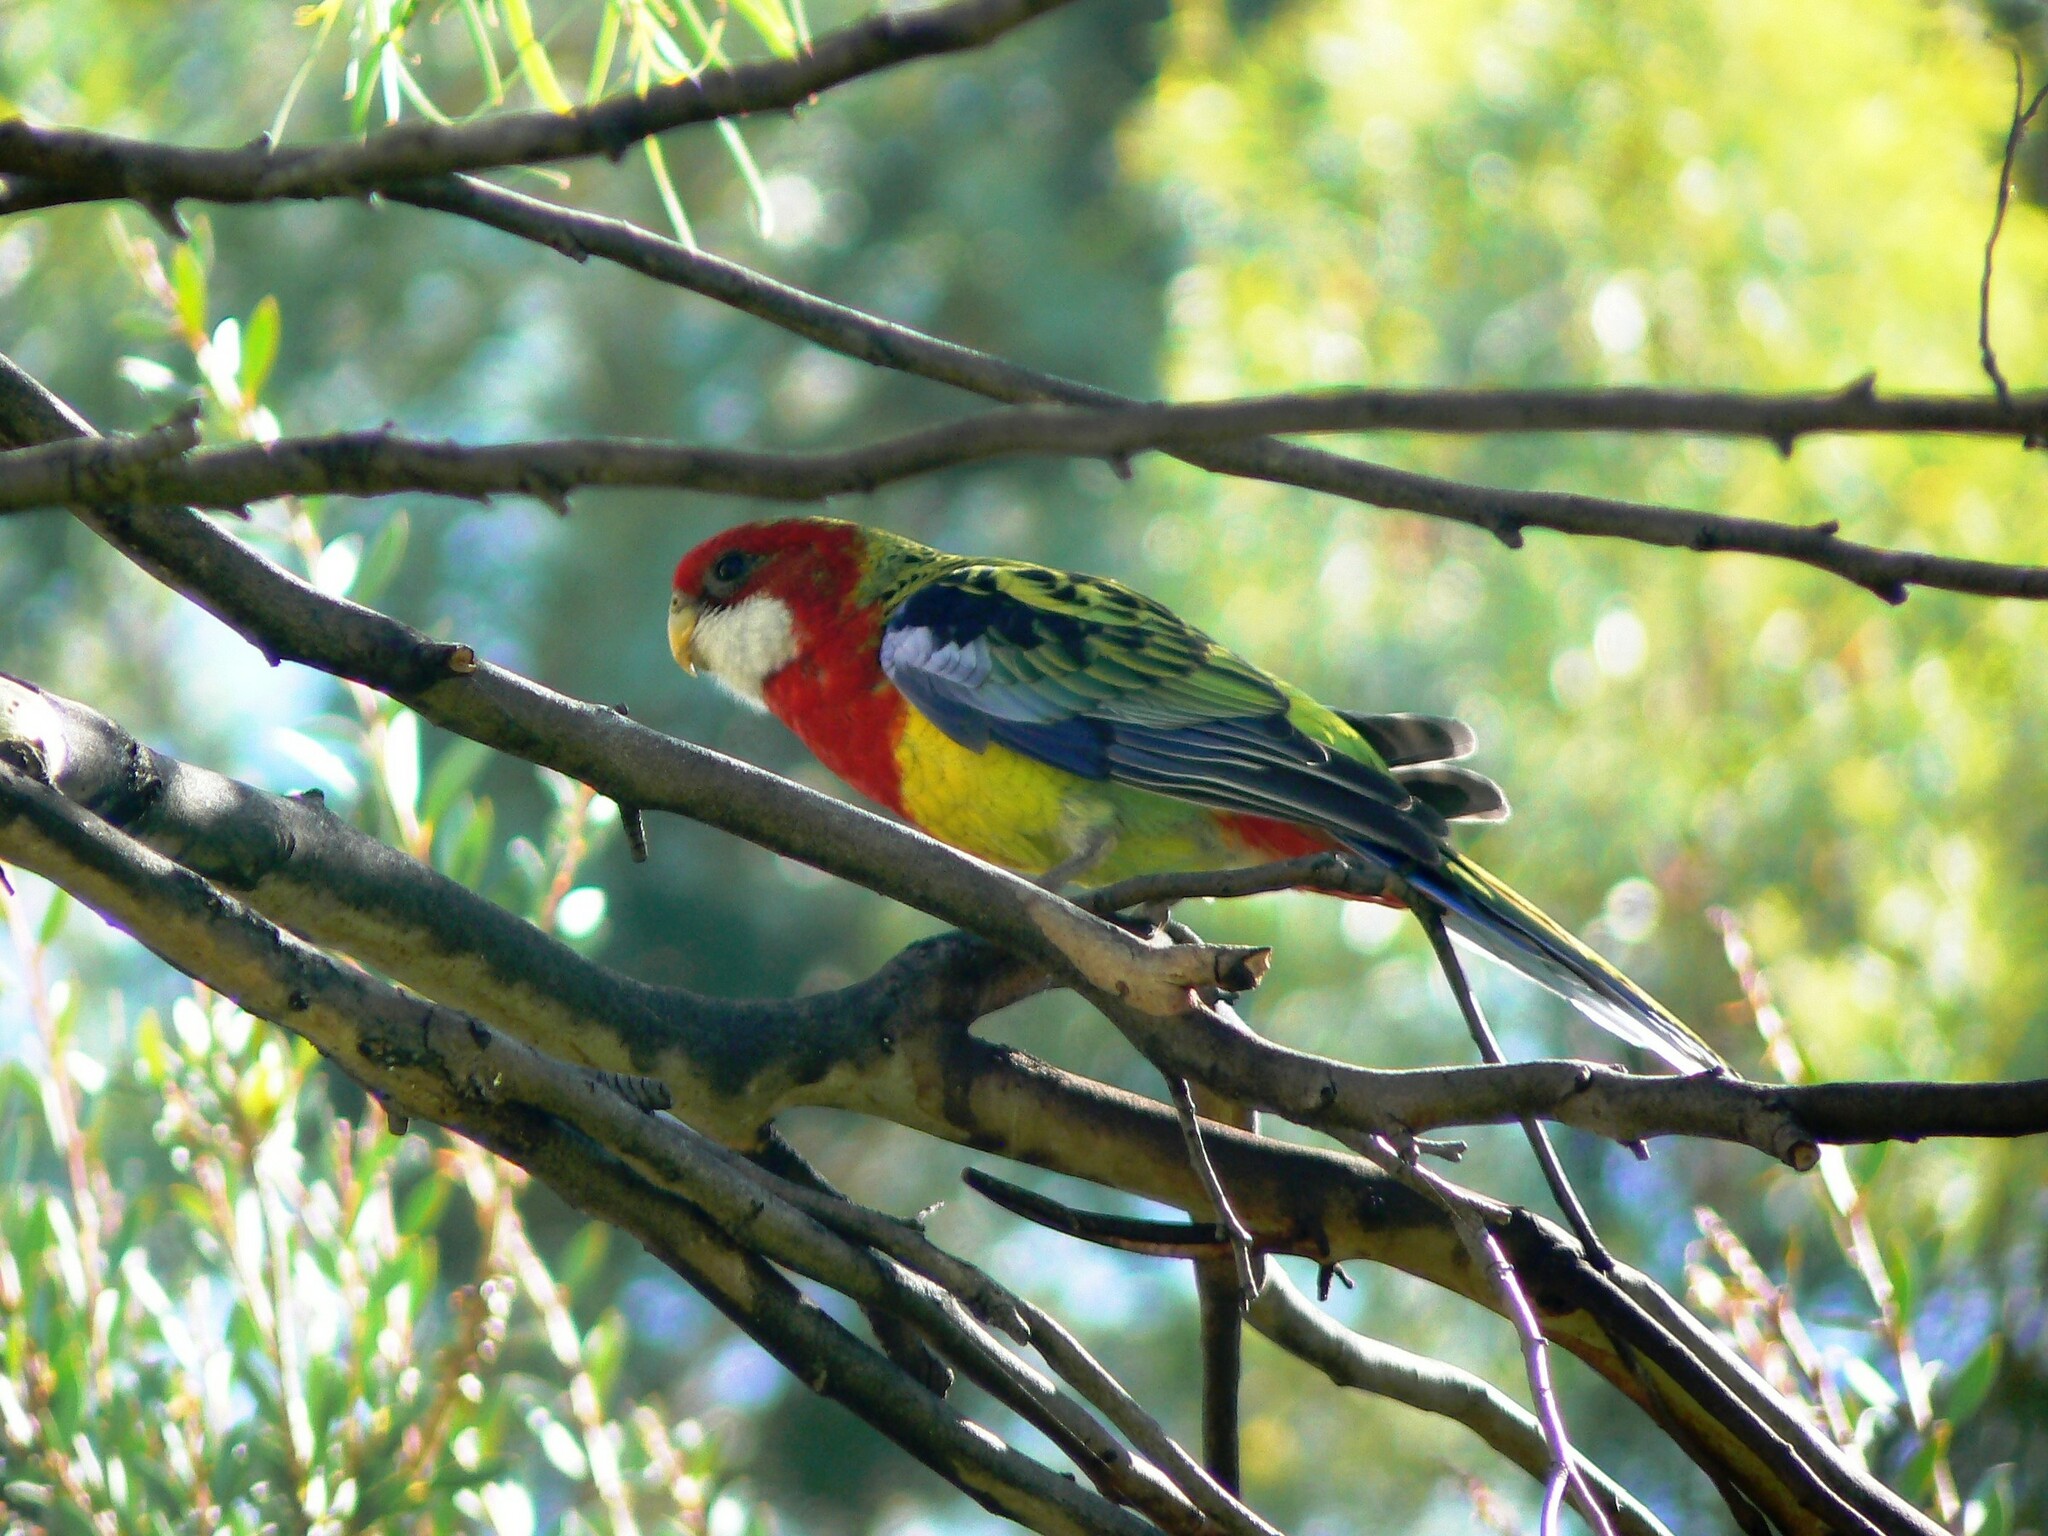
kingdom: Animalia
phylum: Chordata
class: Aves
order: Psittaciformes
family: Psittacidae
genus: Platycercus
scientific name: Platycercus eximius
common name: Eastern rosella
